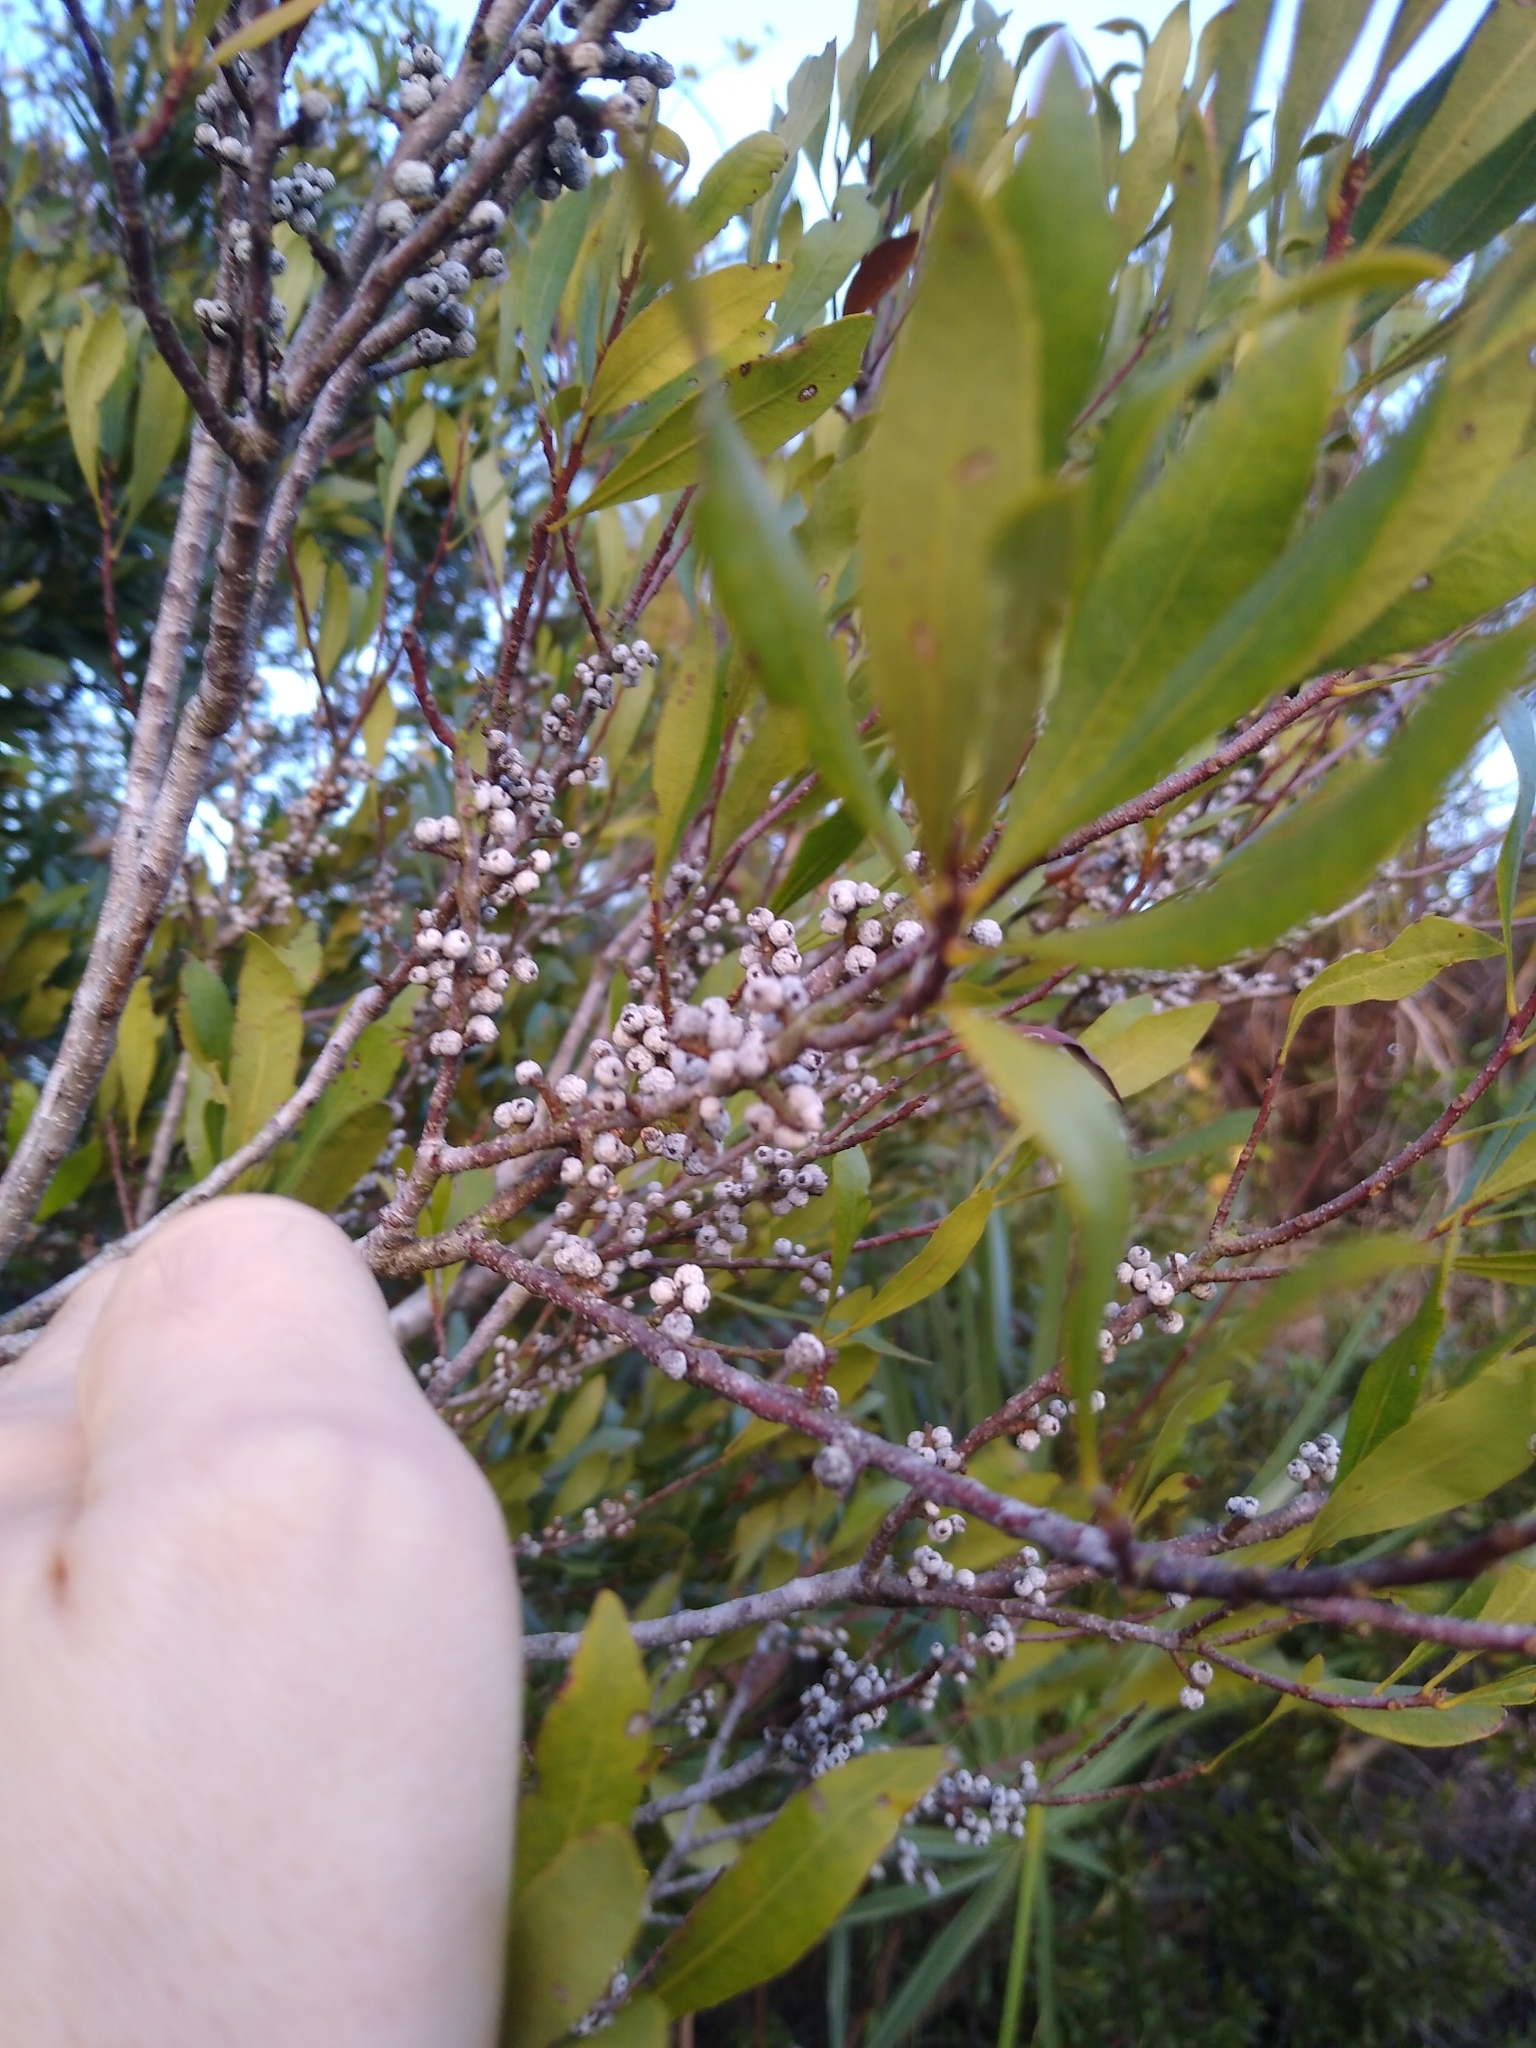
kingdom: Plantae
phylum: Tracheophyta
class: Magnoliopsida
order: Fagales
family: Myricaceae
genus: Morella
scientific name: Morella cerifera
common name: Wax myrtle
